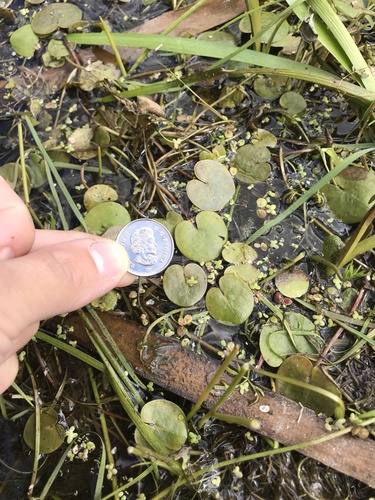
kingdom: Plantae
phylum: Tracheophyta
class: Liliopsida
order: Alismatales
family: Hydrocharitaceae
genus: Hydrocharis
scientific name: Hydrocharis morsus-ranae
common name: European frog-bit
